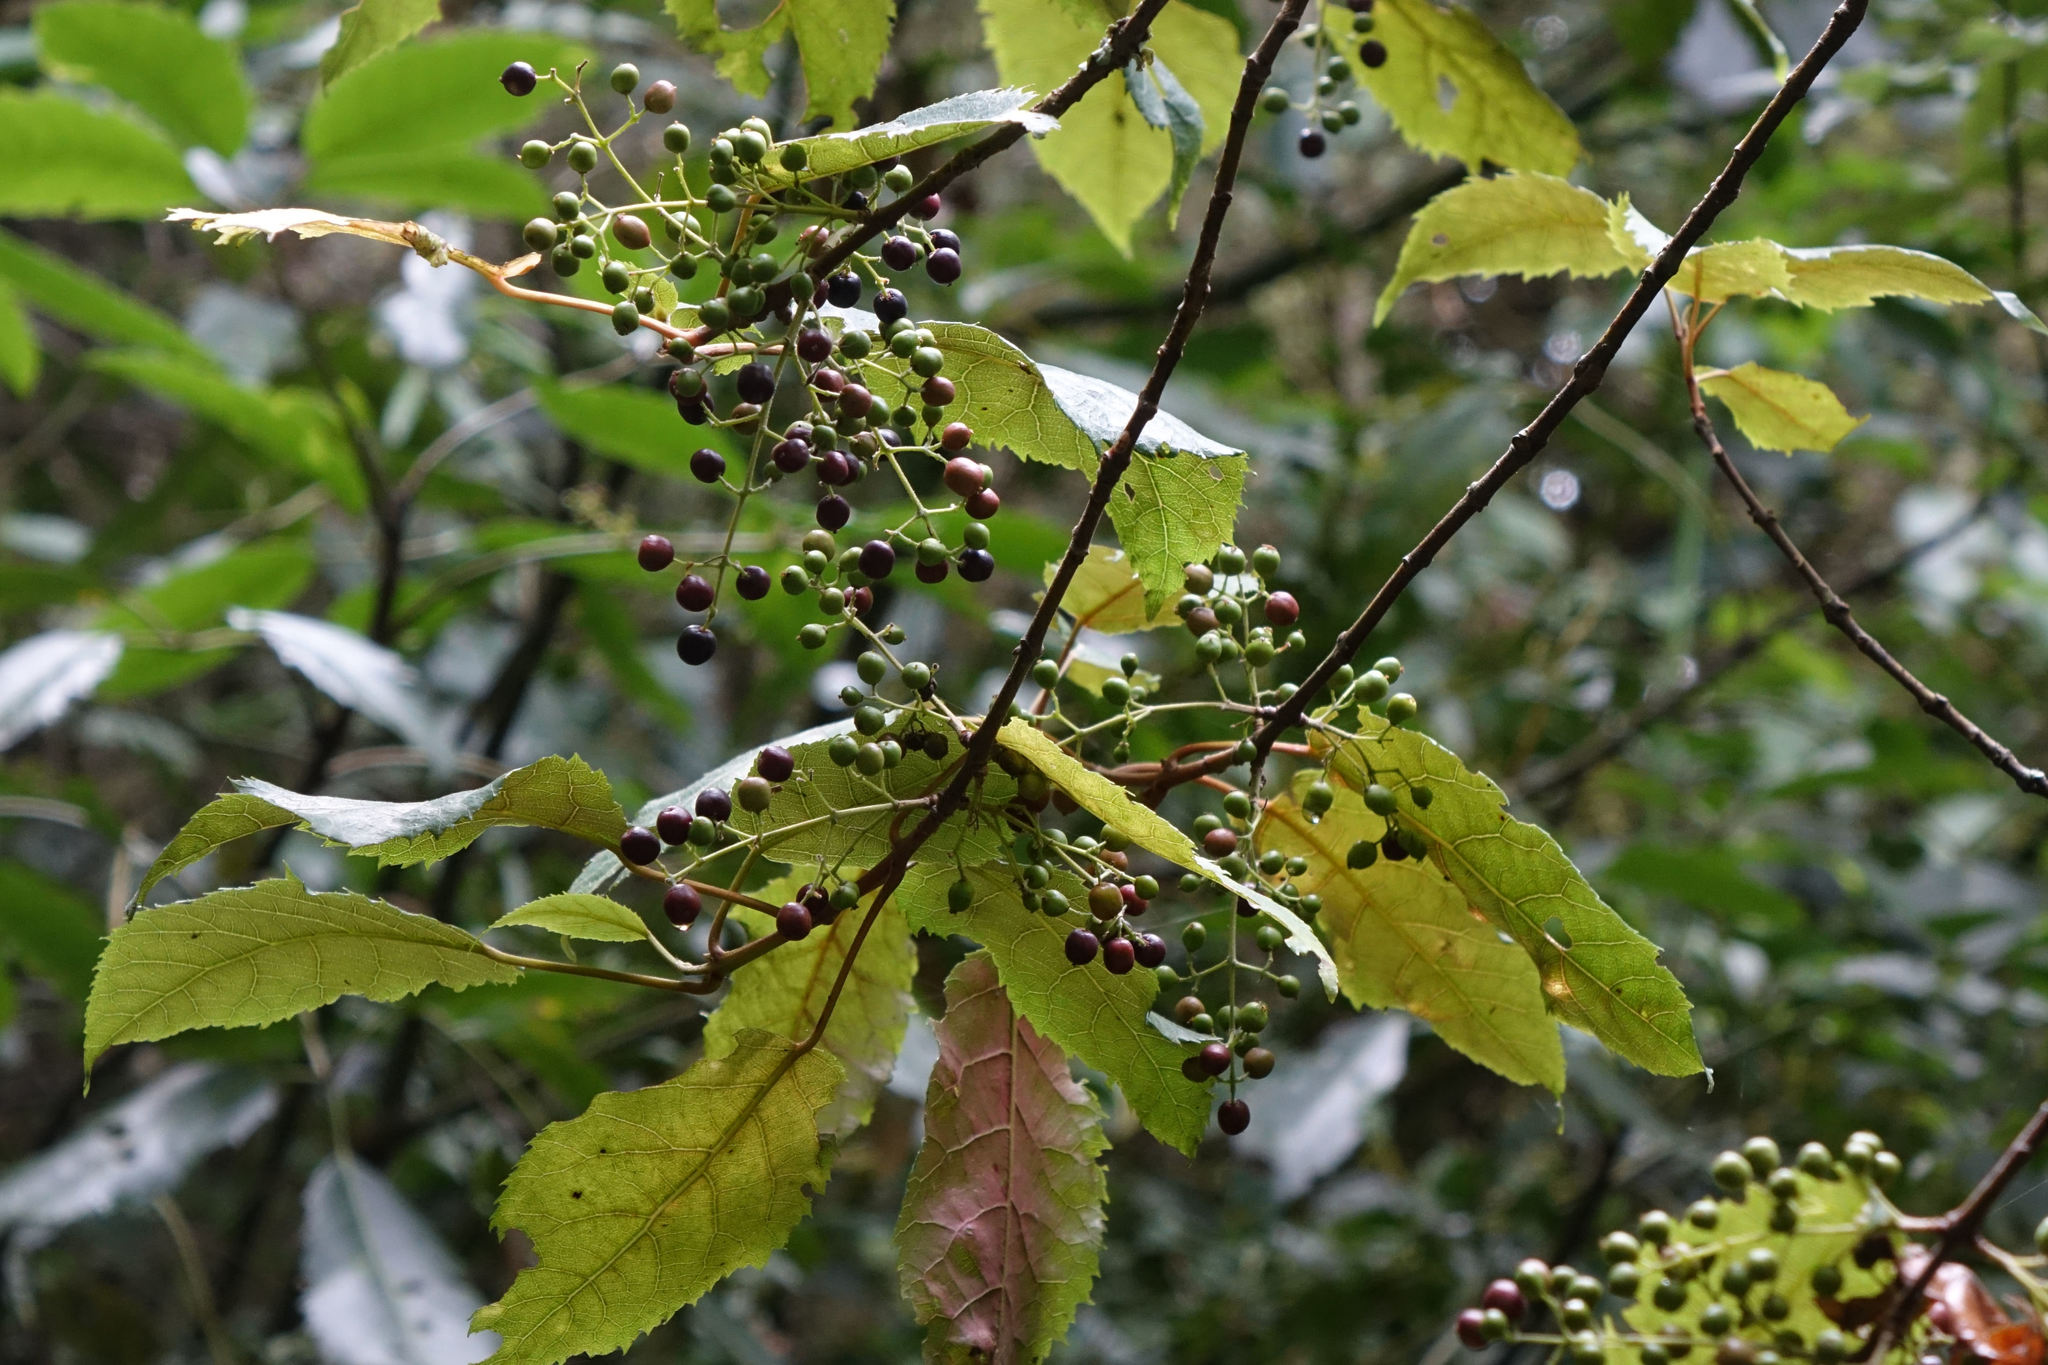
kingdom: Plantae
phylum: Tracheophyta
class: Magnoliopsida
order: Oxalidales
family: Elaeocarpaceae
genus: Aristotelia
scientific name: Aristotelia serrata
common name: New zealand wineberry
